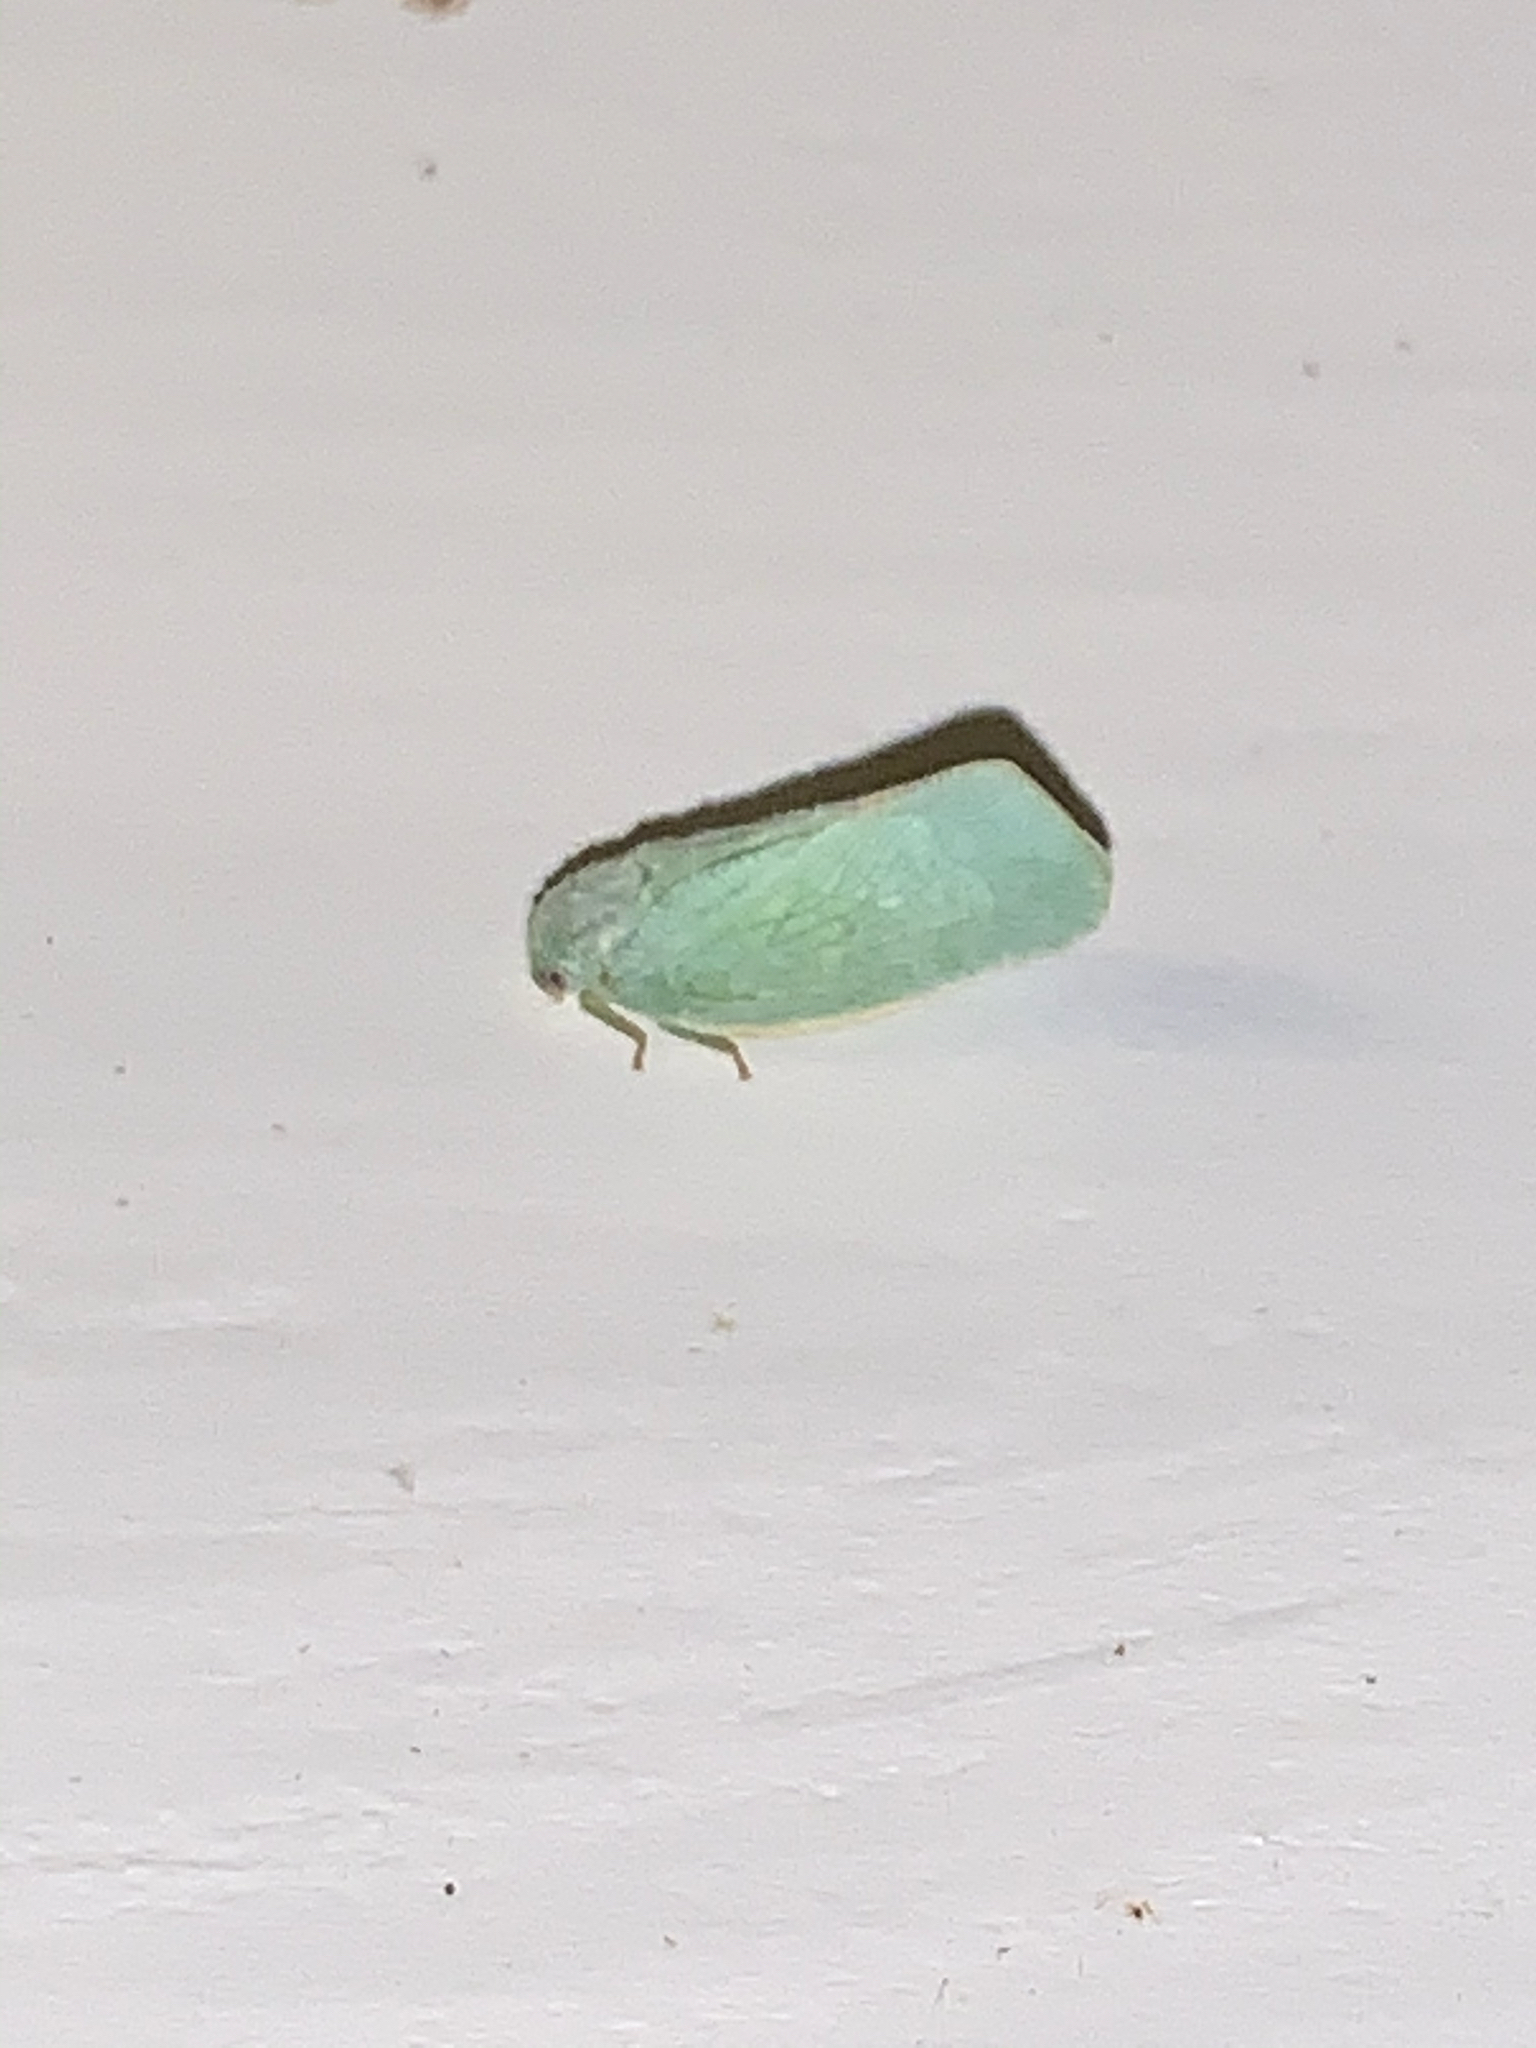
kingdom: Animalia
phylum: Arthropoda
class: Insecta
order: Hemiptera
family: Flatidae
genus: Flatormenis
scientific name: Flatormenis proxima
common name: Northern flatid planthopper
